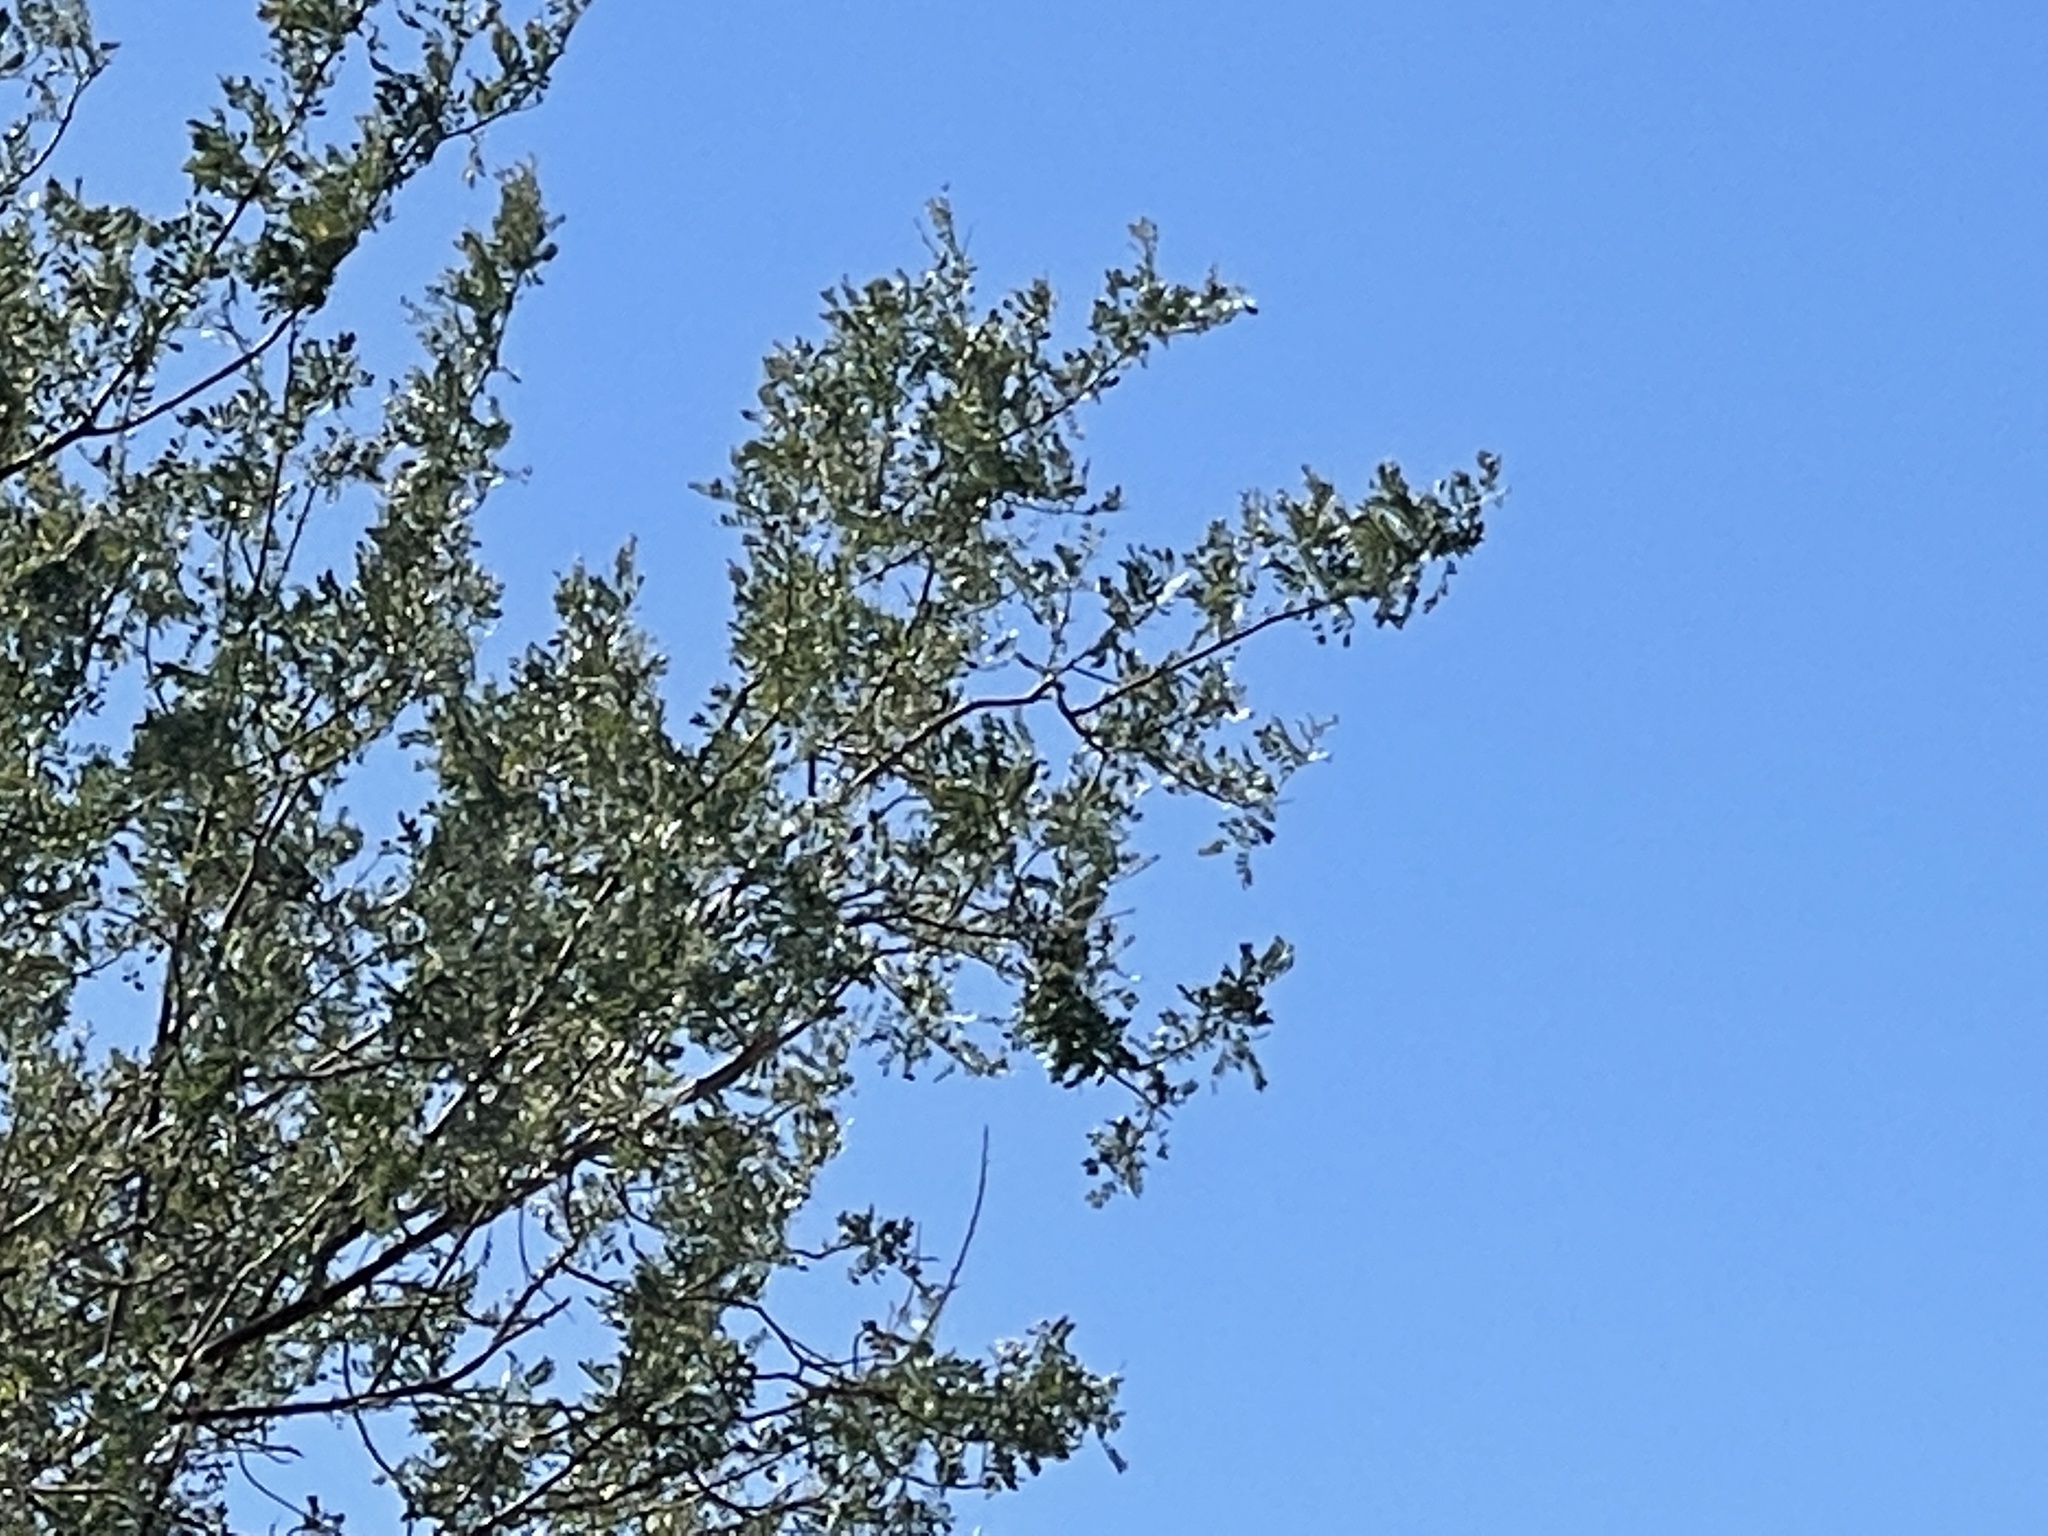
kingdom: Plantae
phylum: Tracheophyta
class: Magnoliopsida
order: Fabales
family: Fabaceae
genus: Olneya
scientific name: Olneya tesota
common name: Desert ironwood
